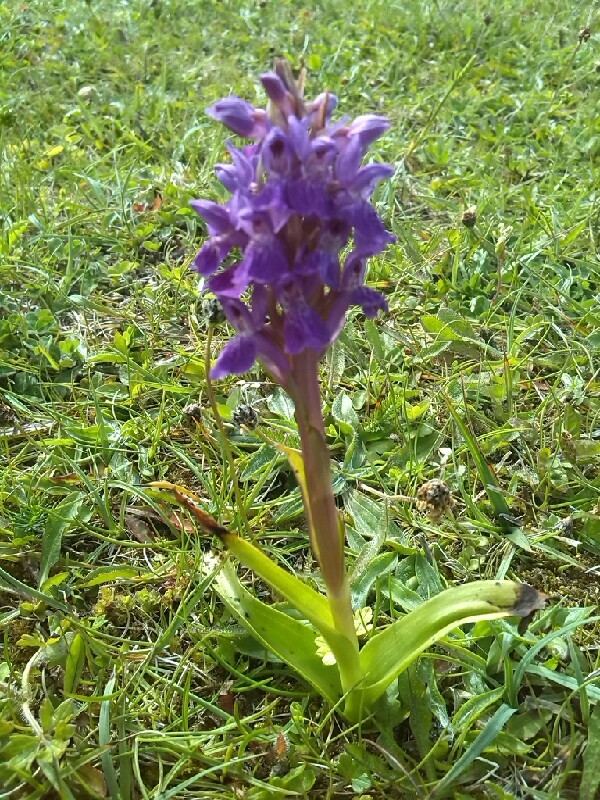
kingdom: Plantae
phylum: Tracheophyta
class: Liliopsida
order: Asparagales
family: Orchidaceae
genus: Dactylorhiza
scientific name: Dactylorhiza incarnata
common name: Early marsh-orchid
